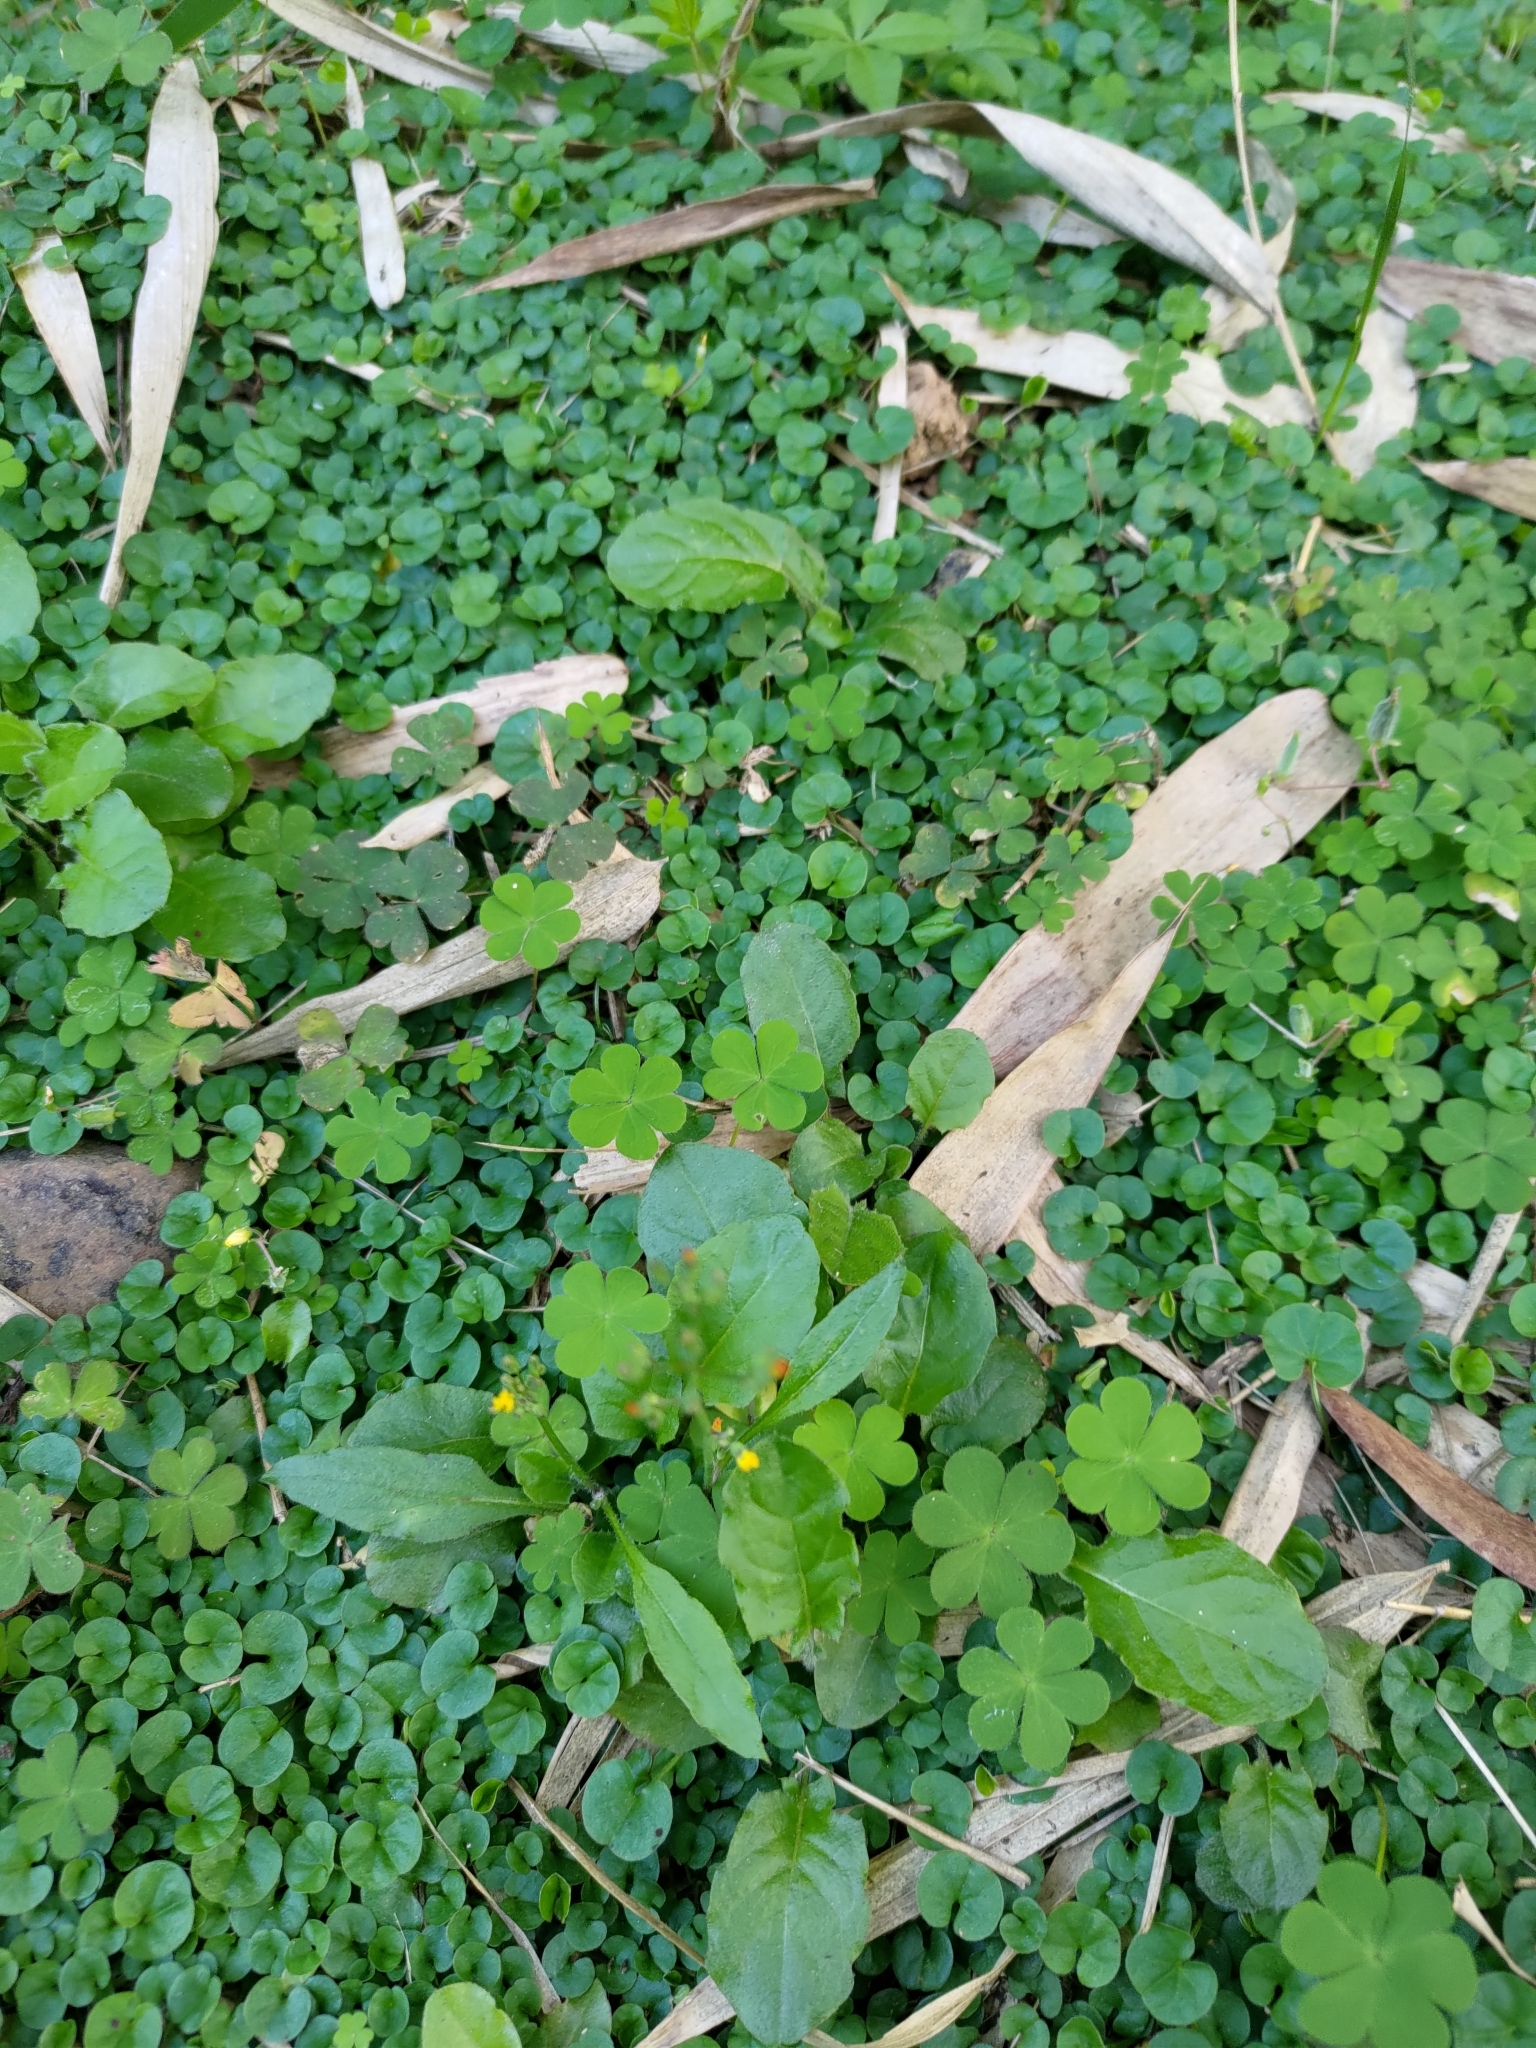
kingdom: Plantae
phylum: Tracheophyta
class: Magnoliopsida
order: Asterales
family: Asteraceae
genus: Youngia
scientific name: Youngia japonica
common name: Oriental false hawksbeard
